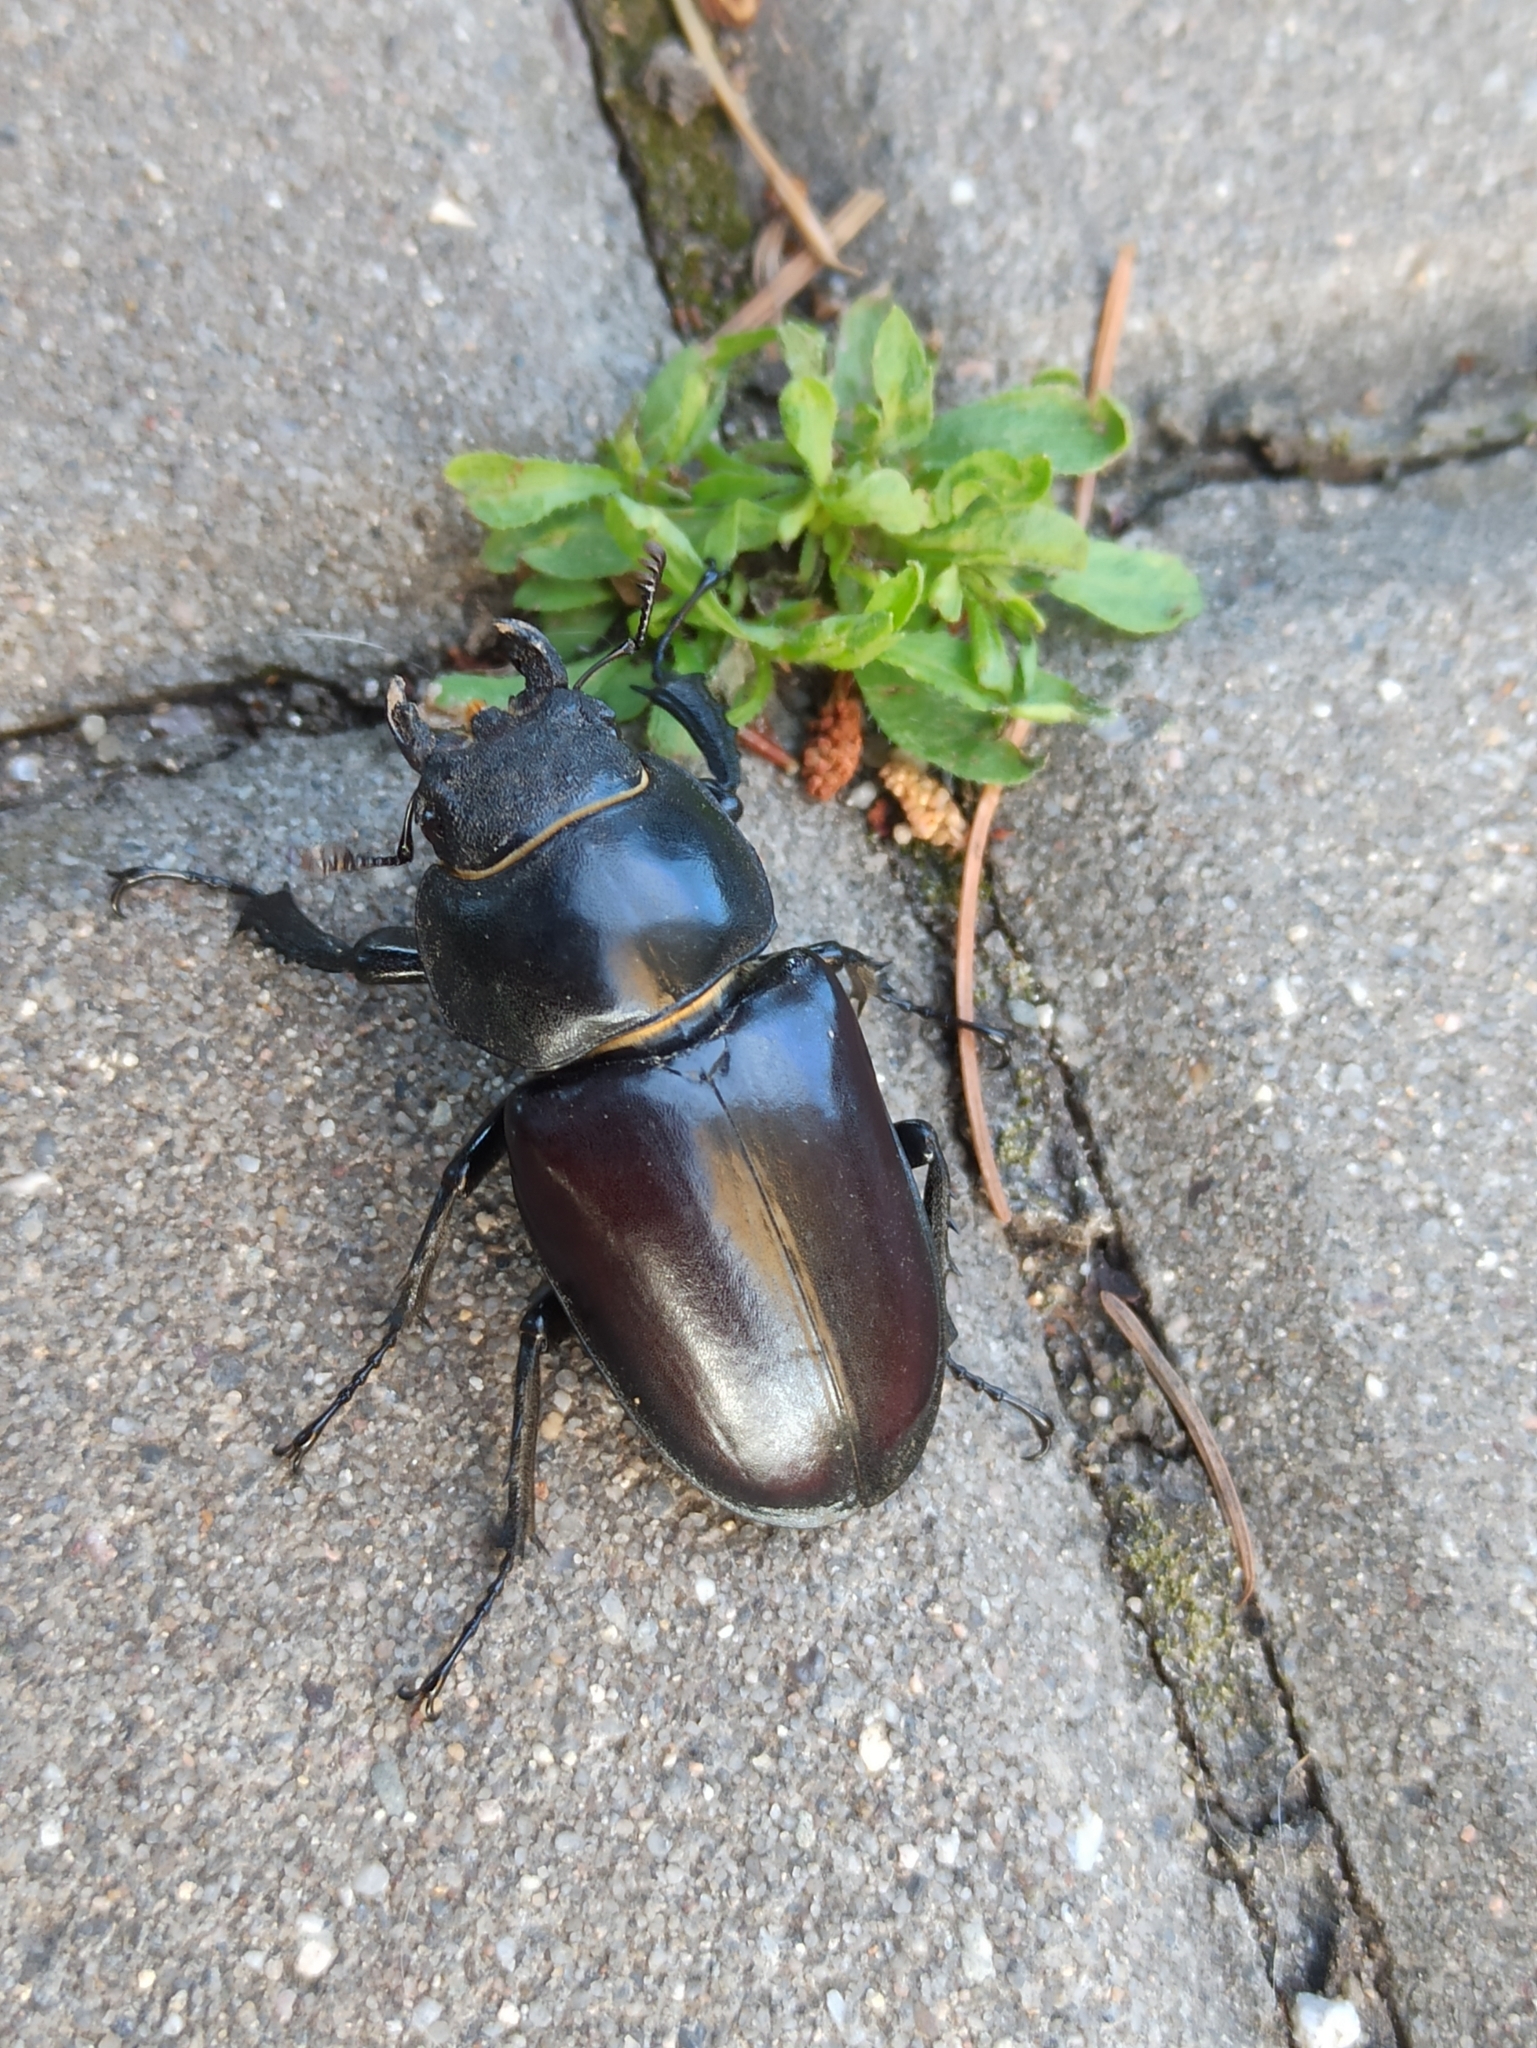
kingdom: Animalia
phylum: Arthropoda
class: Insecta
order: Coleoptera
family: Lucanidae
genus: Lucanus
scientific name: Lucanus cervus
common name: Stag beetle
